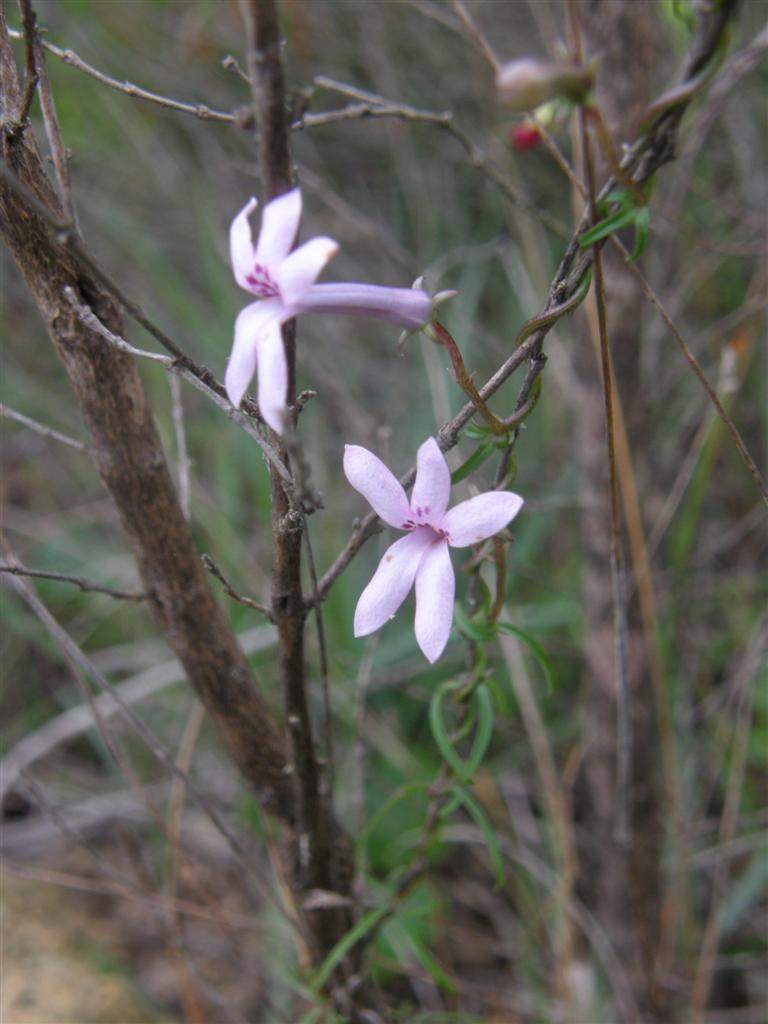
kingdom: Plantae
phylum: Tracheophyta
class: Magnoliopsida
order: Asterales
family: Campanulaceae
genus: Cyphia
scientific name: Cyphia volubilis
